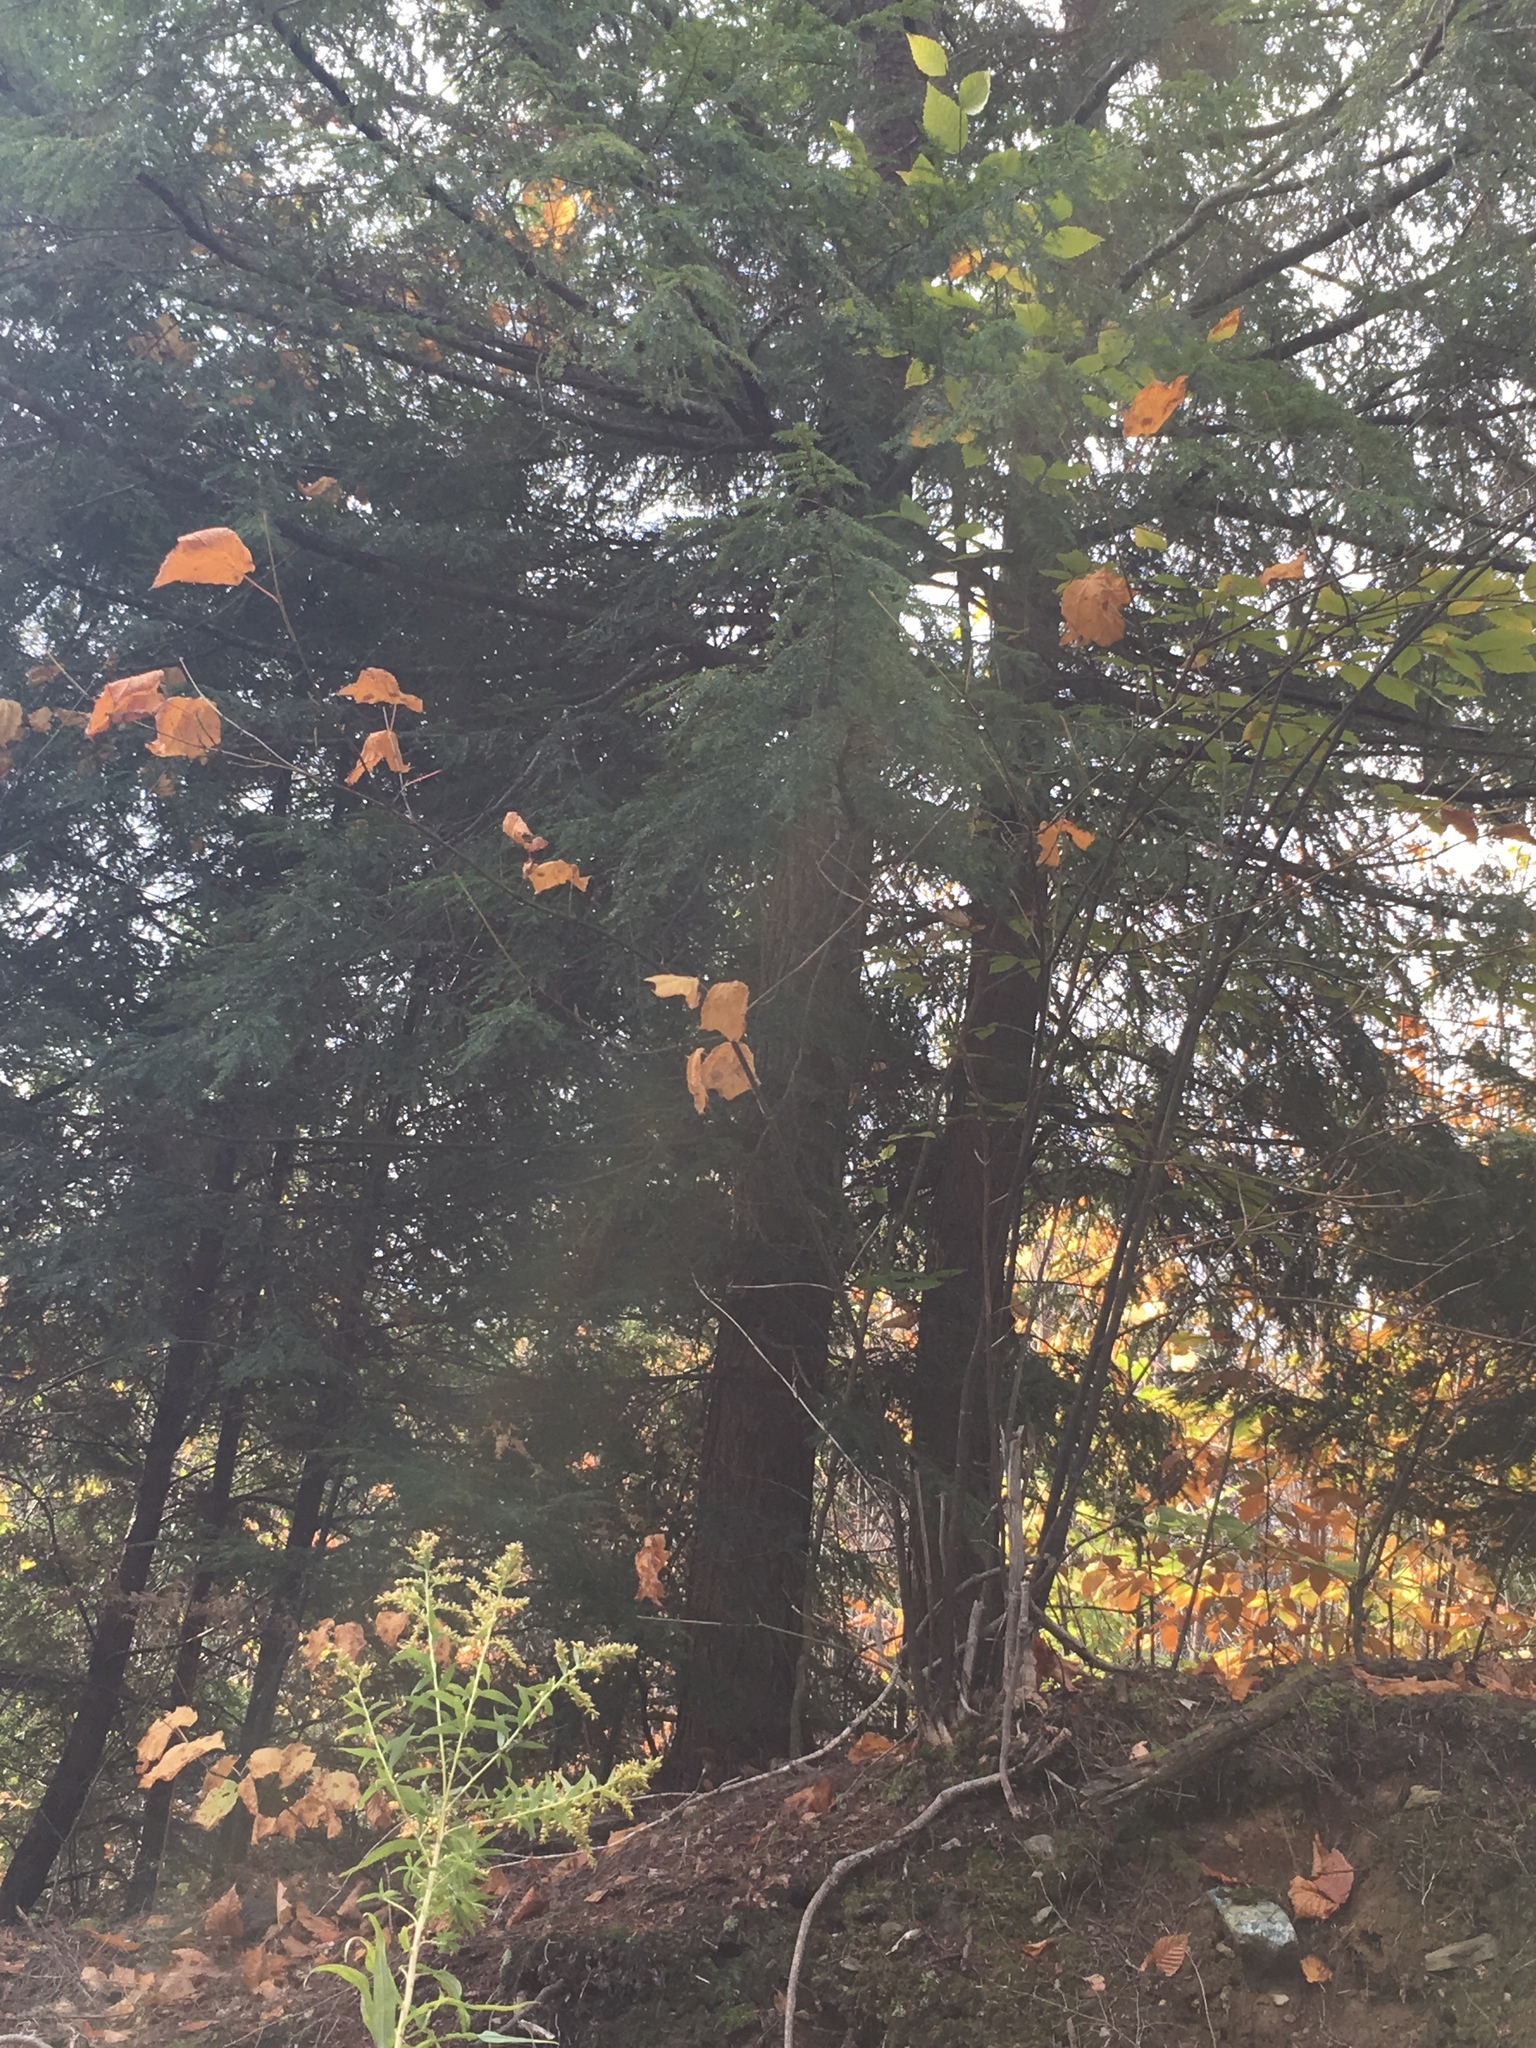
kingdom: Plantae
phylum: Tracheophyta
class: Pinopsida
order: Pinales
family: Pinaceae
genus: Tsuga
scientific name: Tsuga canadensis
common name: Eastern hemlock
